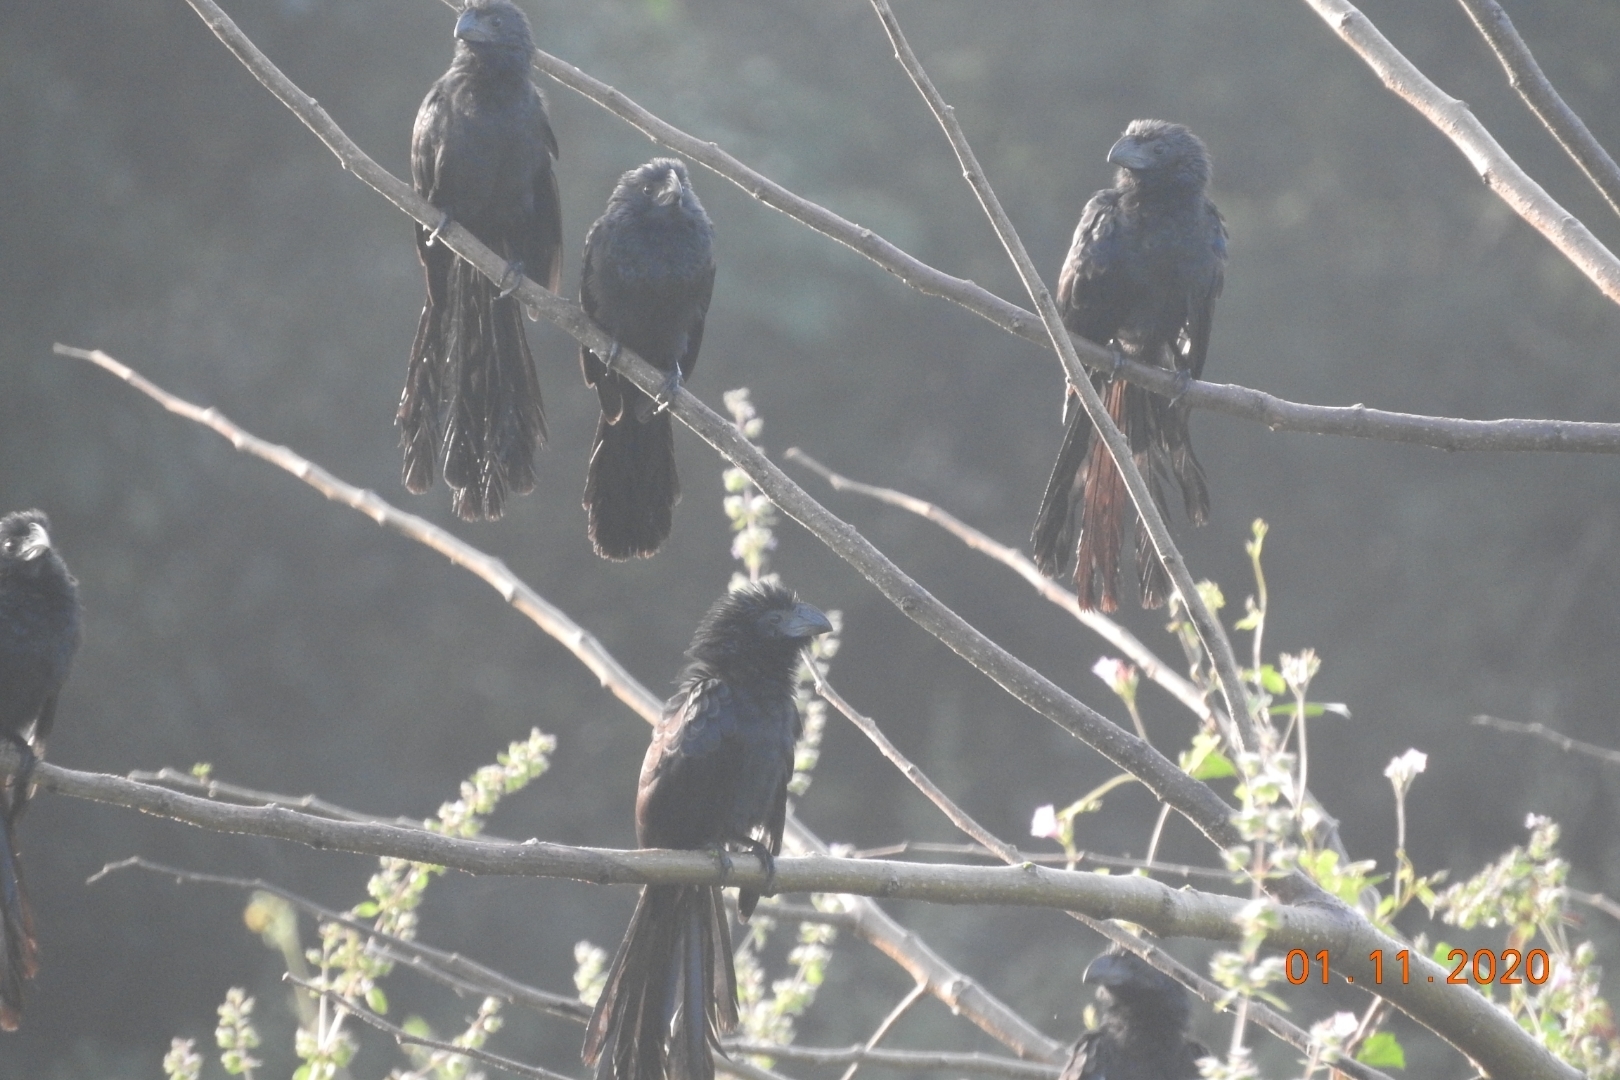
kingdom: Animalia
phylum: Chordata
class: Aves
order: Cuculiformes
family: Cuculidae
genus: Crotophaga
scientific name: Crotophaga sulcirostris
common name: Groove-billed ani
